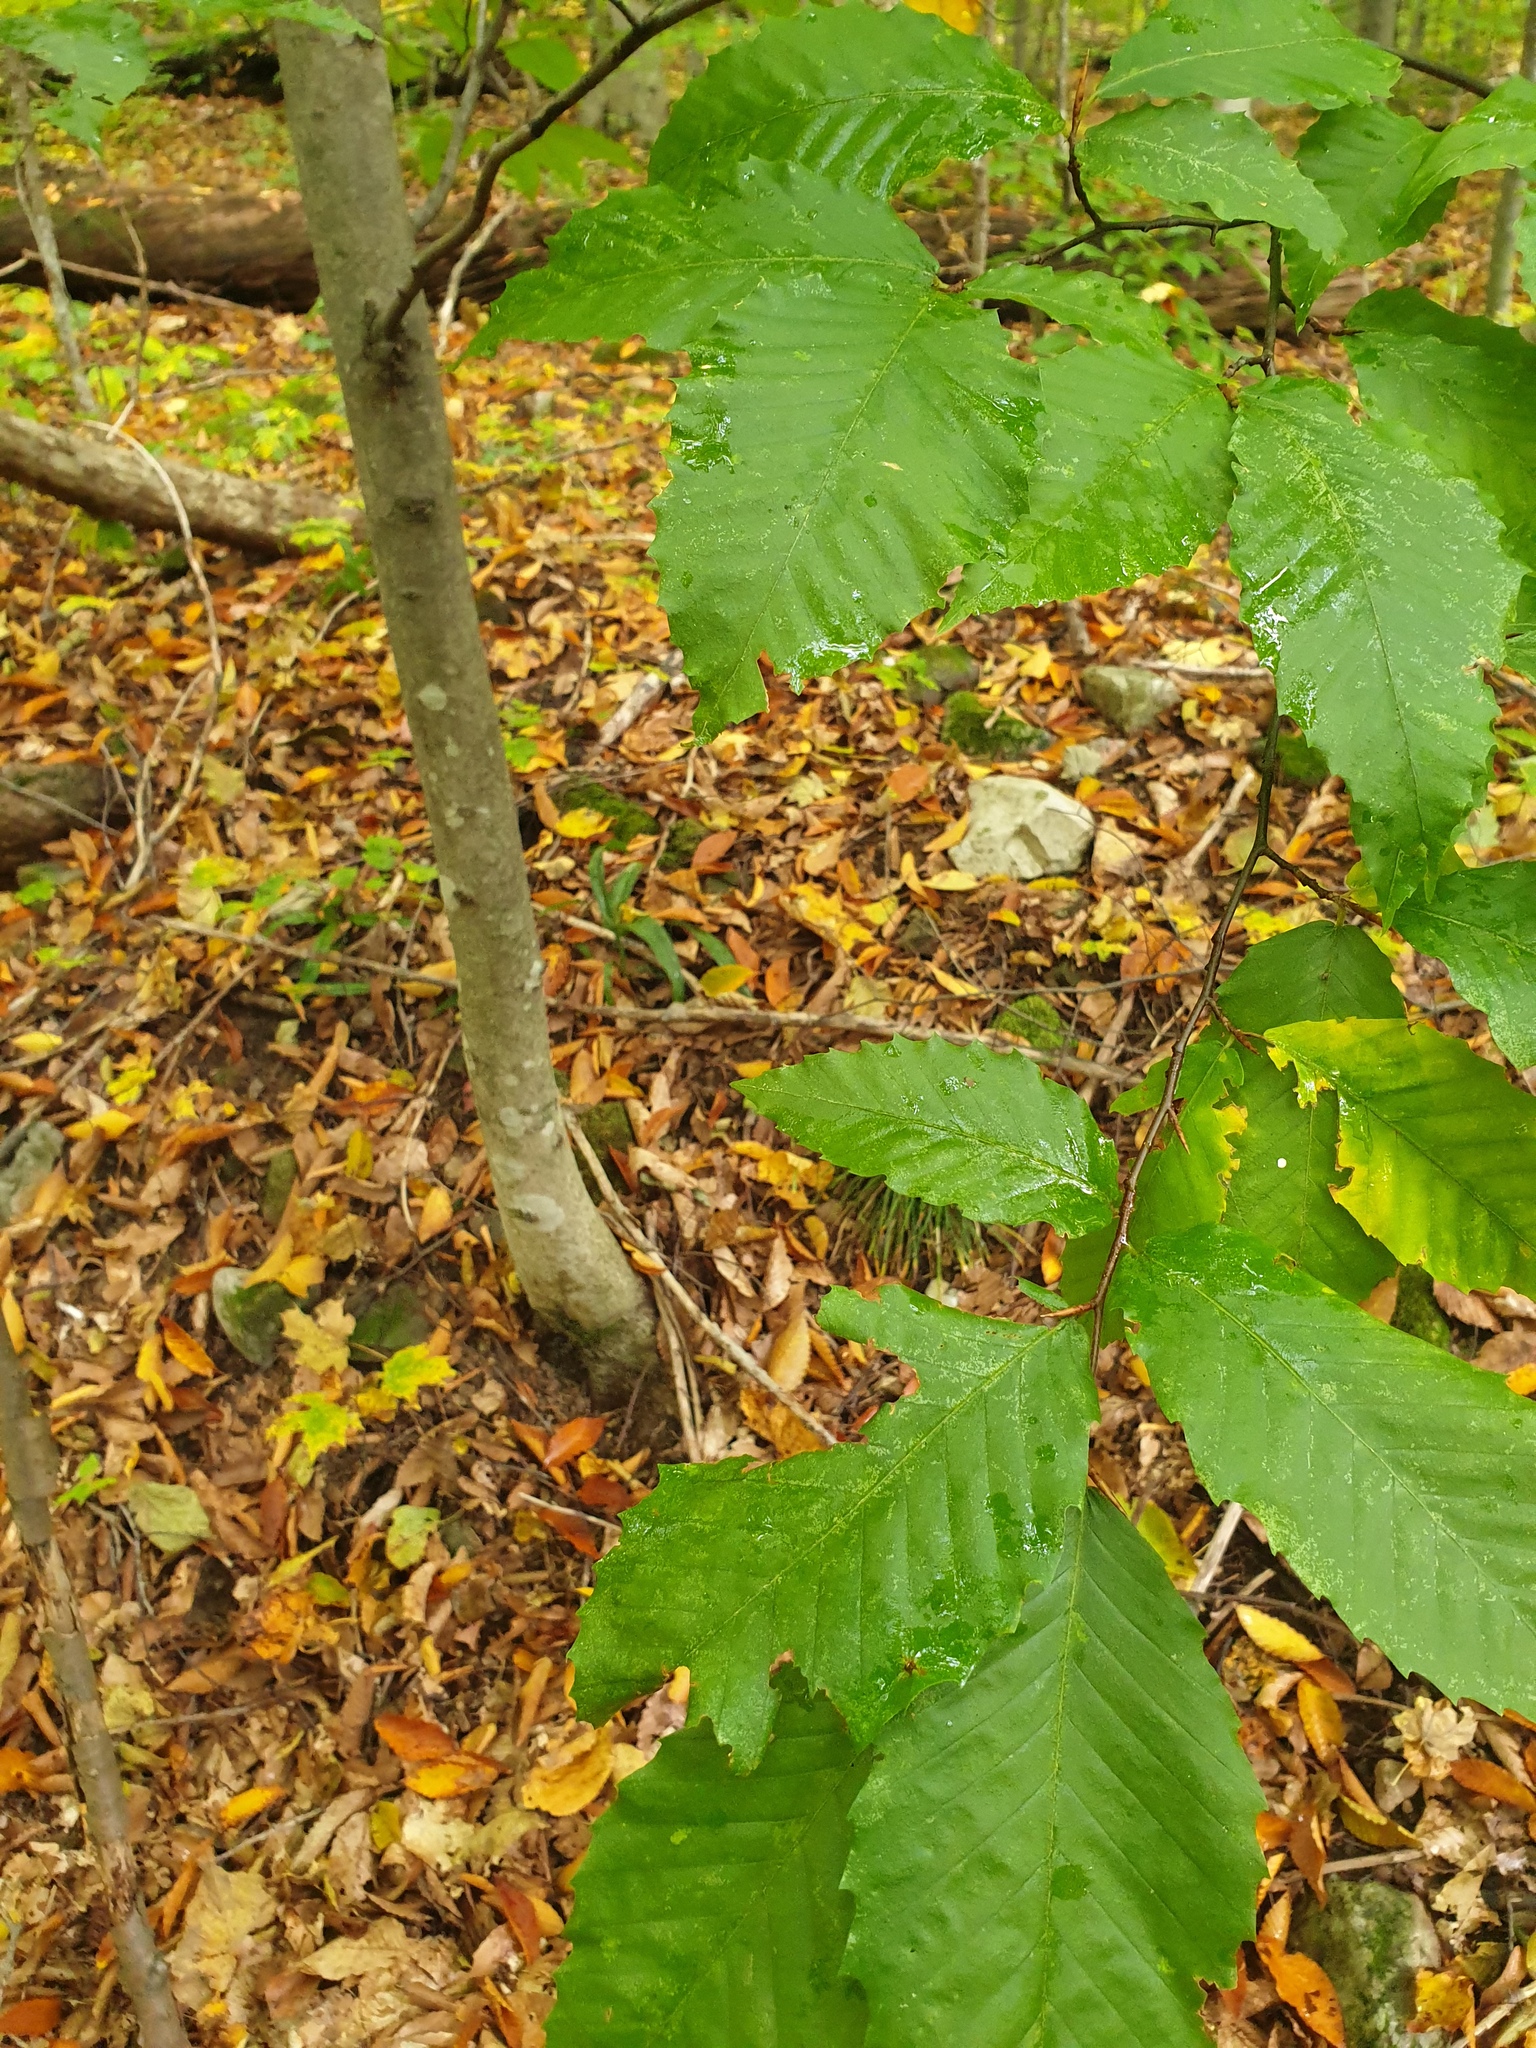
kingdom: Plantae
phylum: Tracheophyta
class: Magnoliopsida
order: Fagales
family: Fagaceae
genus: Fagus
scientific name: Fagus grandifolia
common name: American beech
